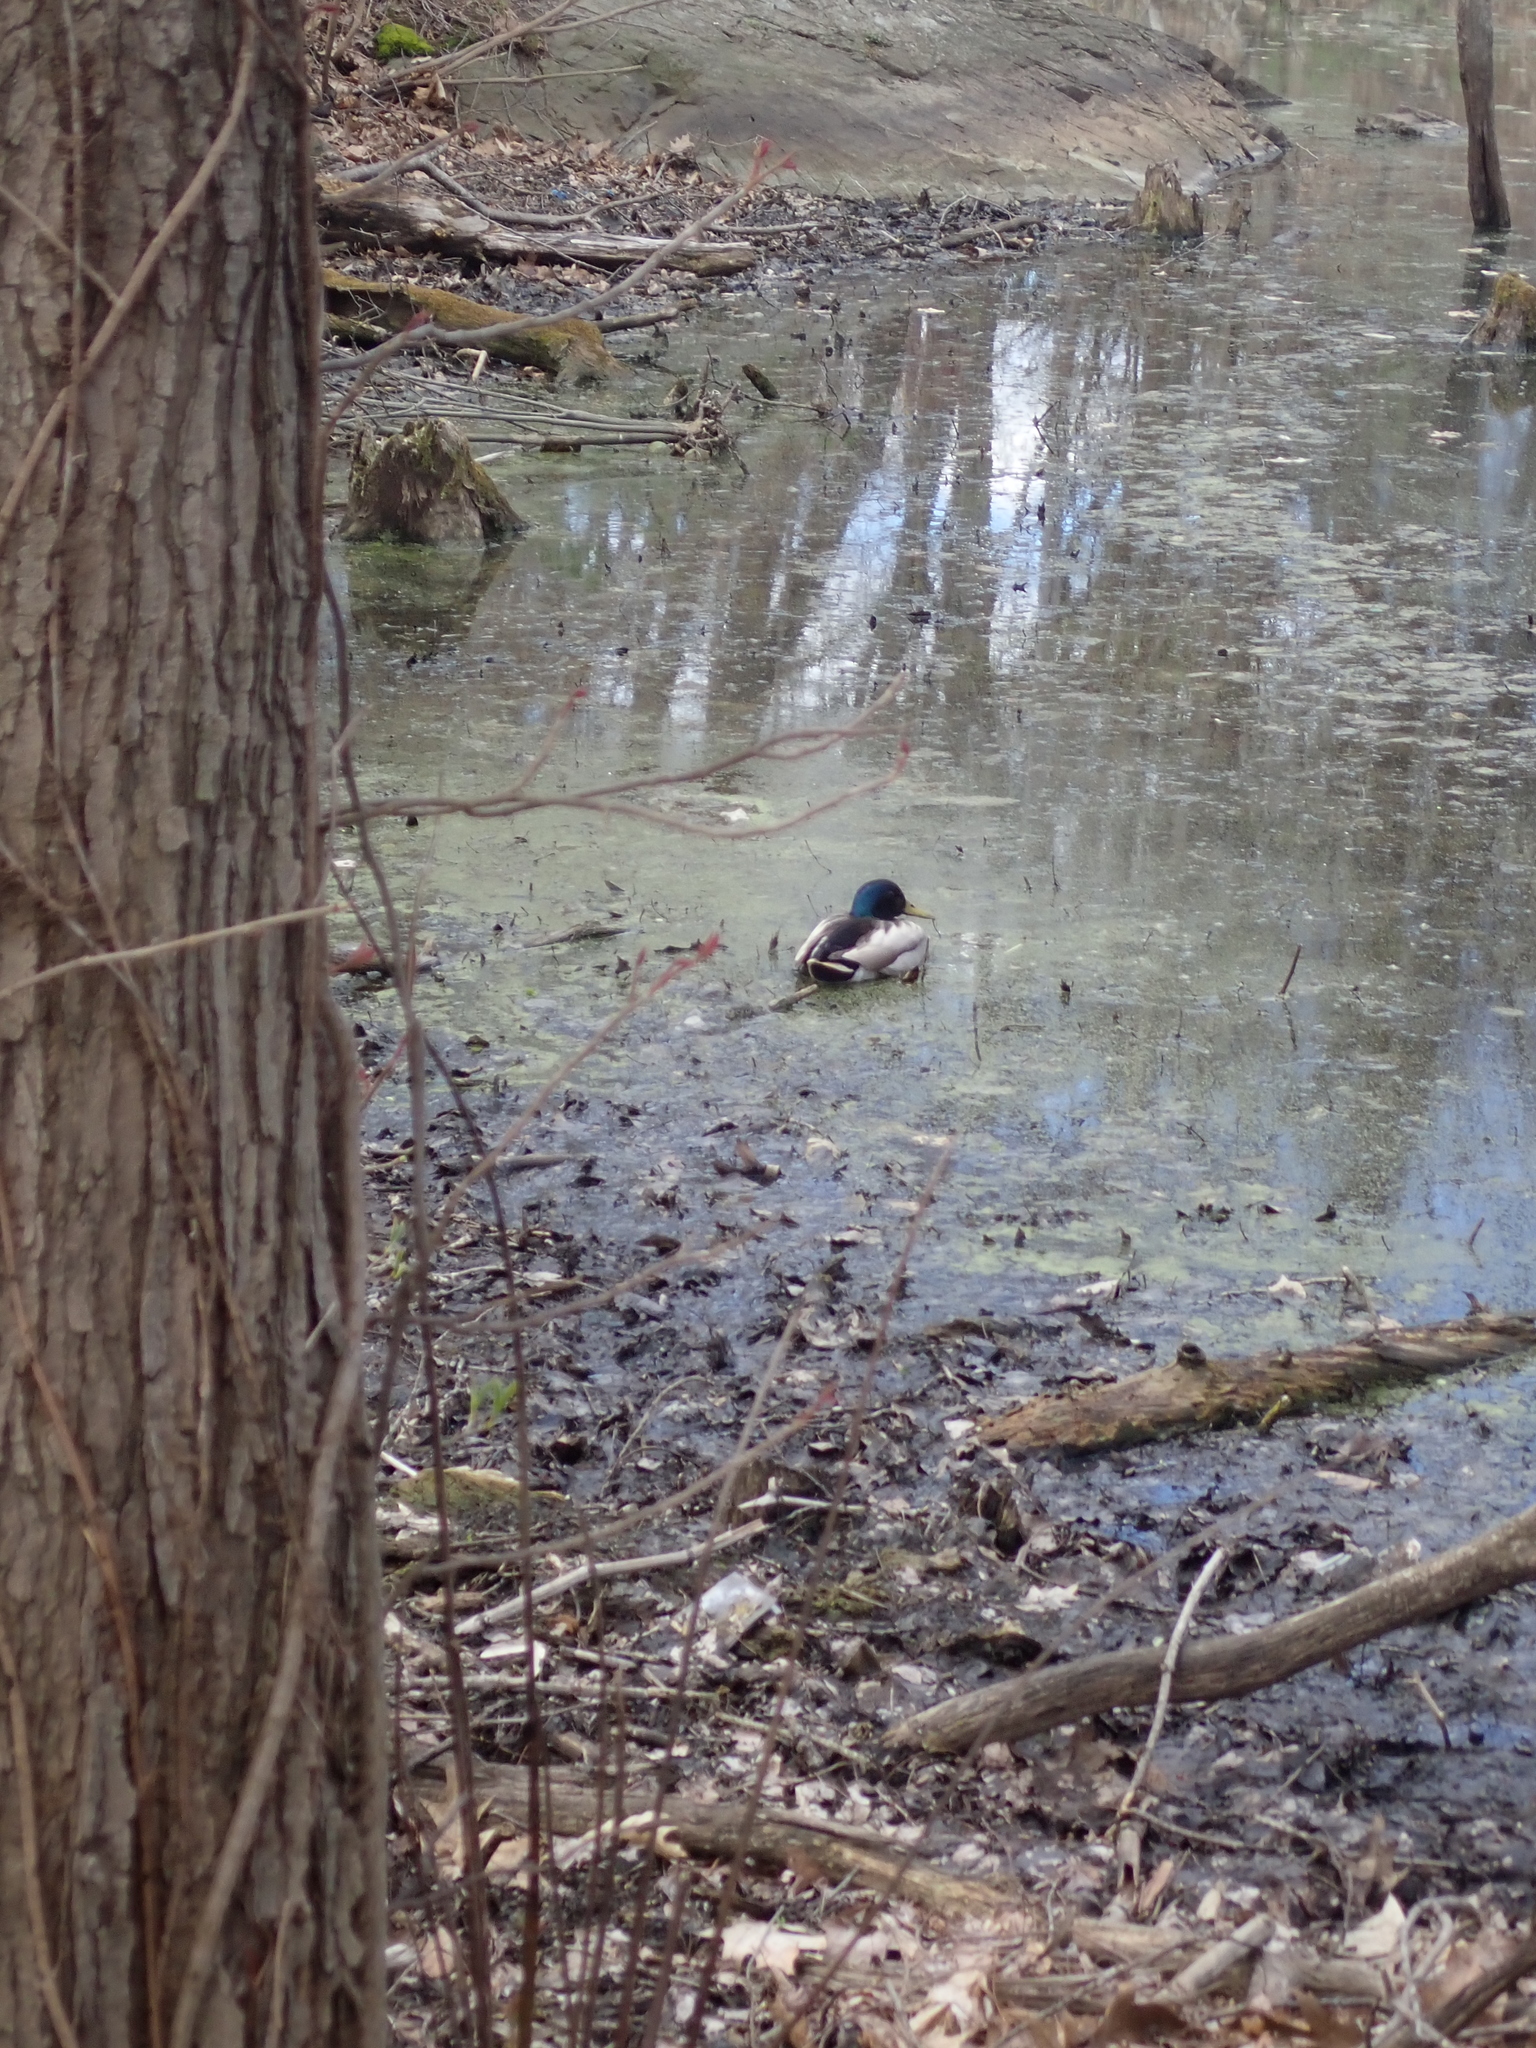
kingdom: Animalia
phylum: Chordata
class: Aves
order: Anseriformes
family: Anatidae
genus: Anas
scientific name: Anas platyrhynchos
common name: Mallard
